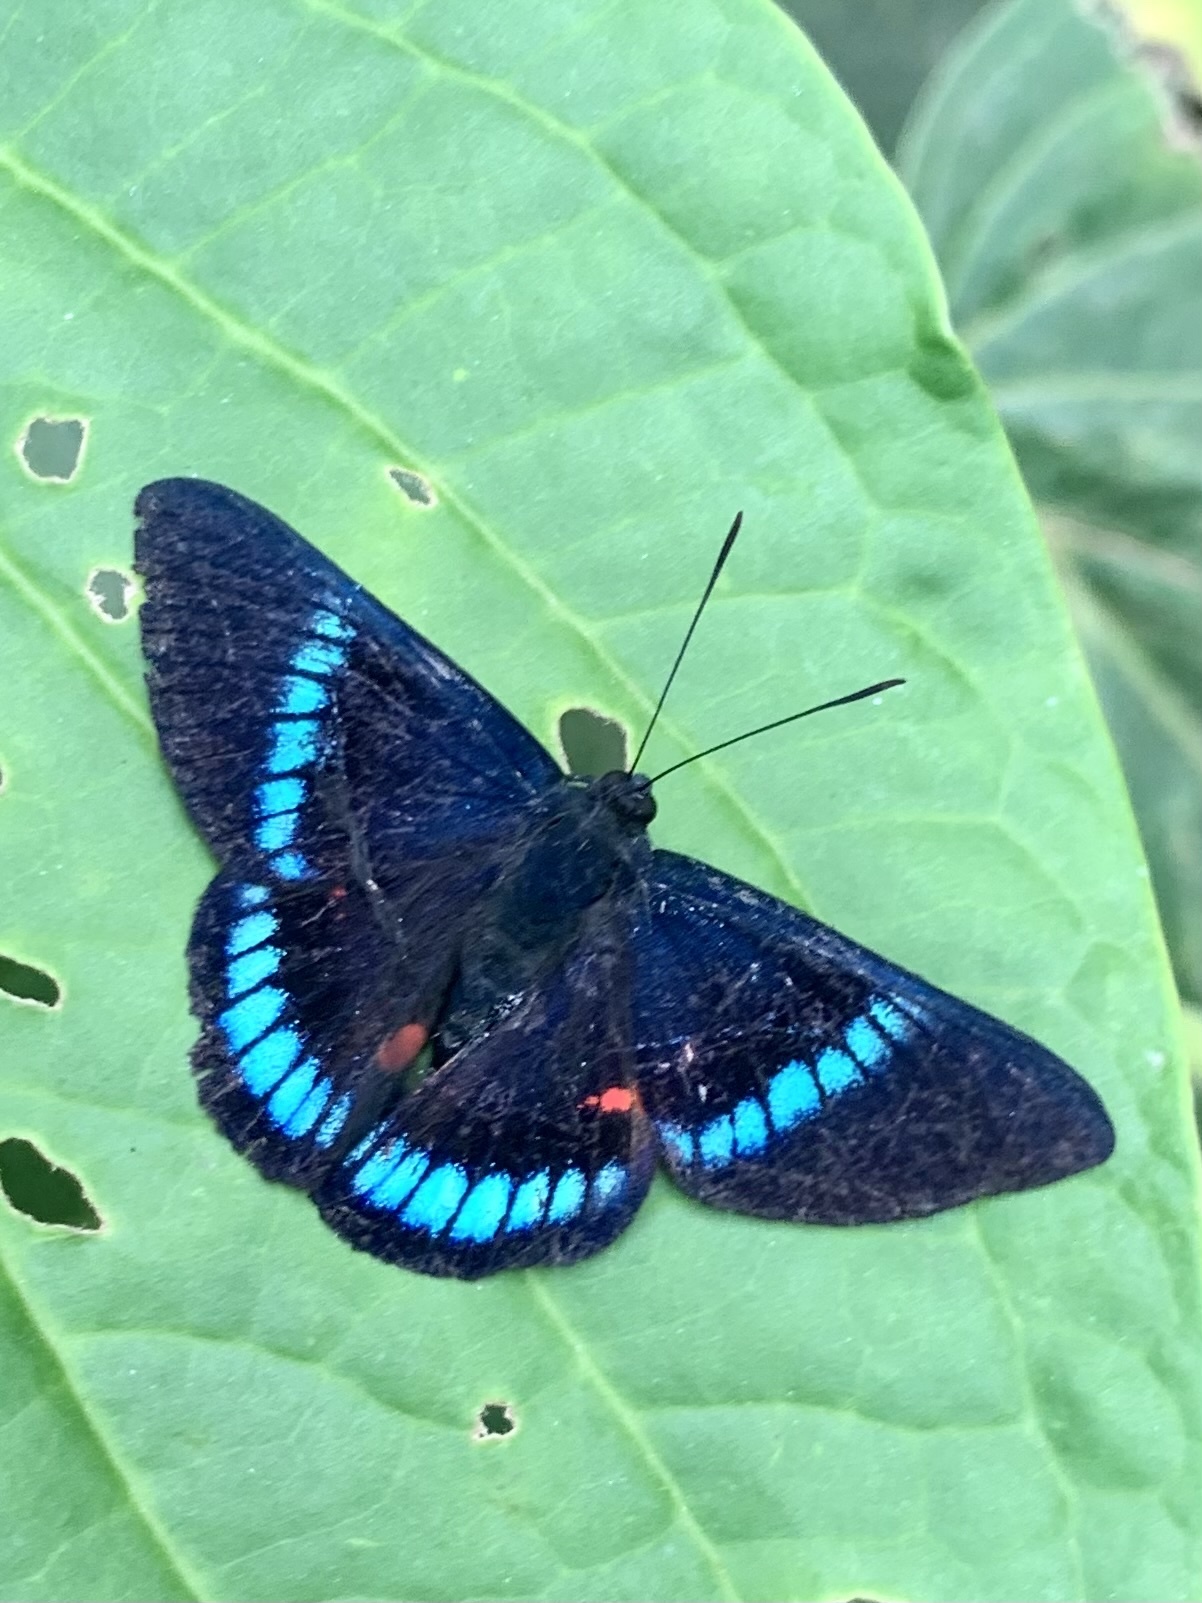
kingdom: Animalia
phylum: Arthropoda
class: Insecta
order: Lepidoptera
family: Lycaenidae
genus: Necyria
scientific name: Necyria bellona
